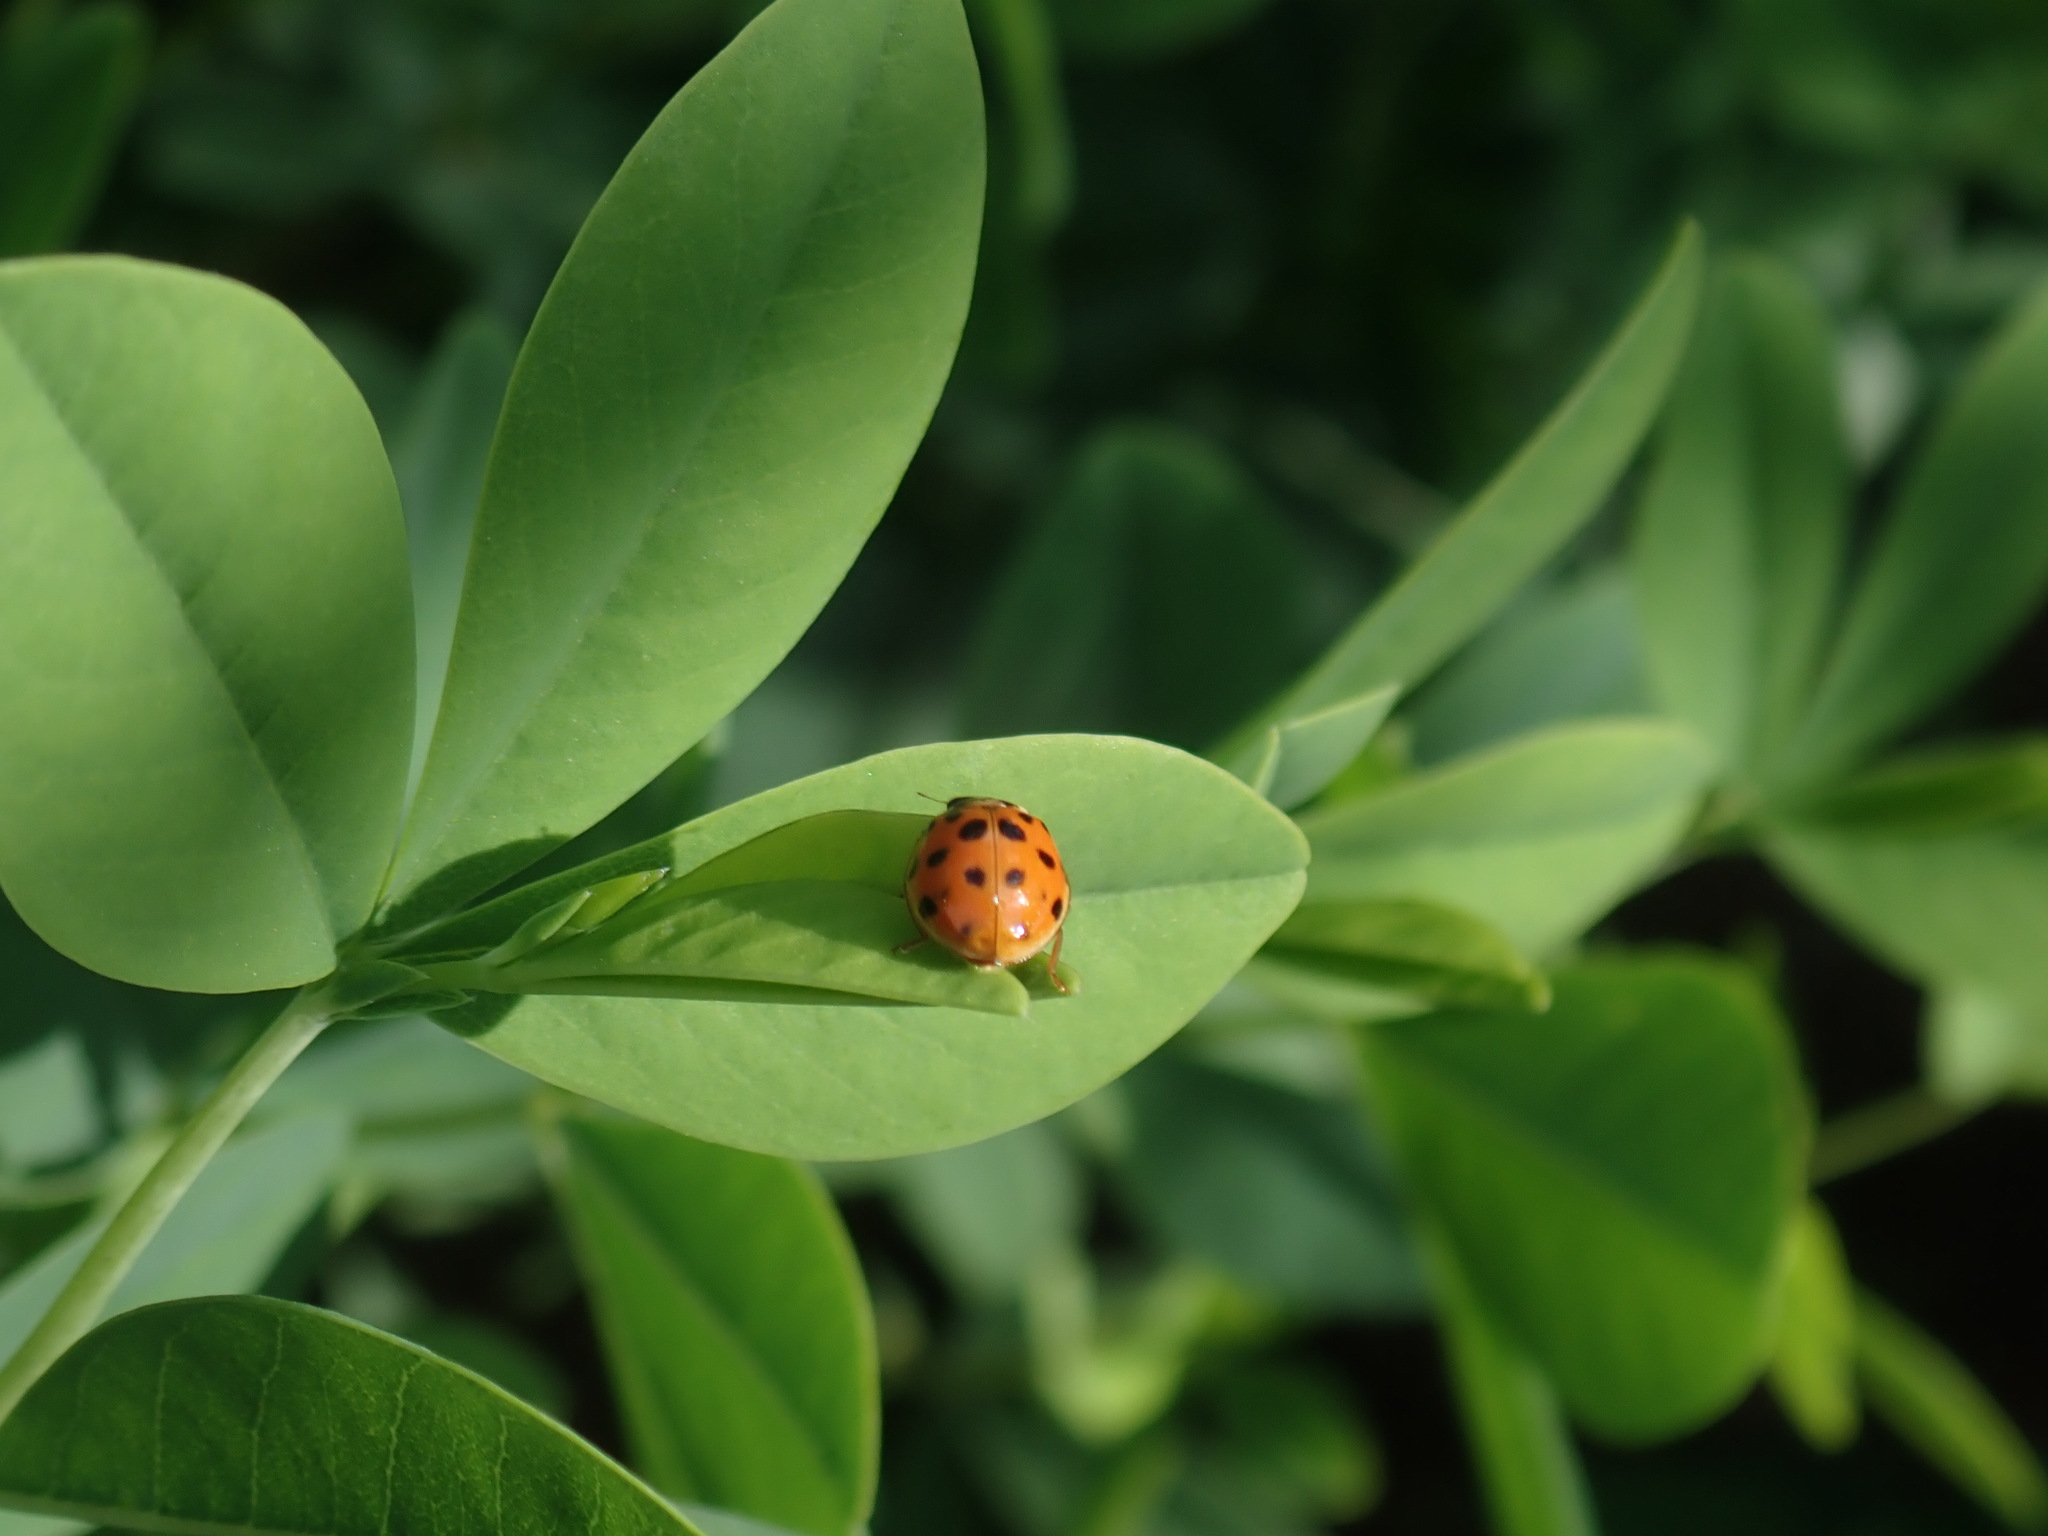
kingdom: Animalia
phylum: Arthropoda
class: Insecta
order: Coleoptera
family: Coccinellidae
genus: Harmonia
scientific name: Harmonia axyridis
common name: Harlequin ladybird
